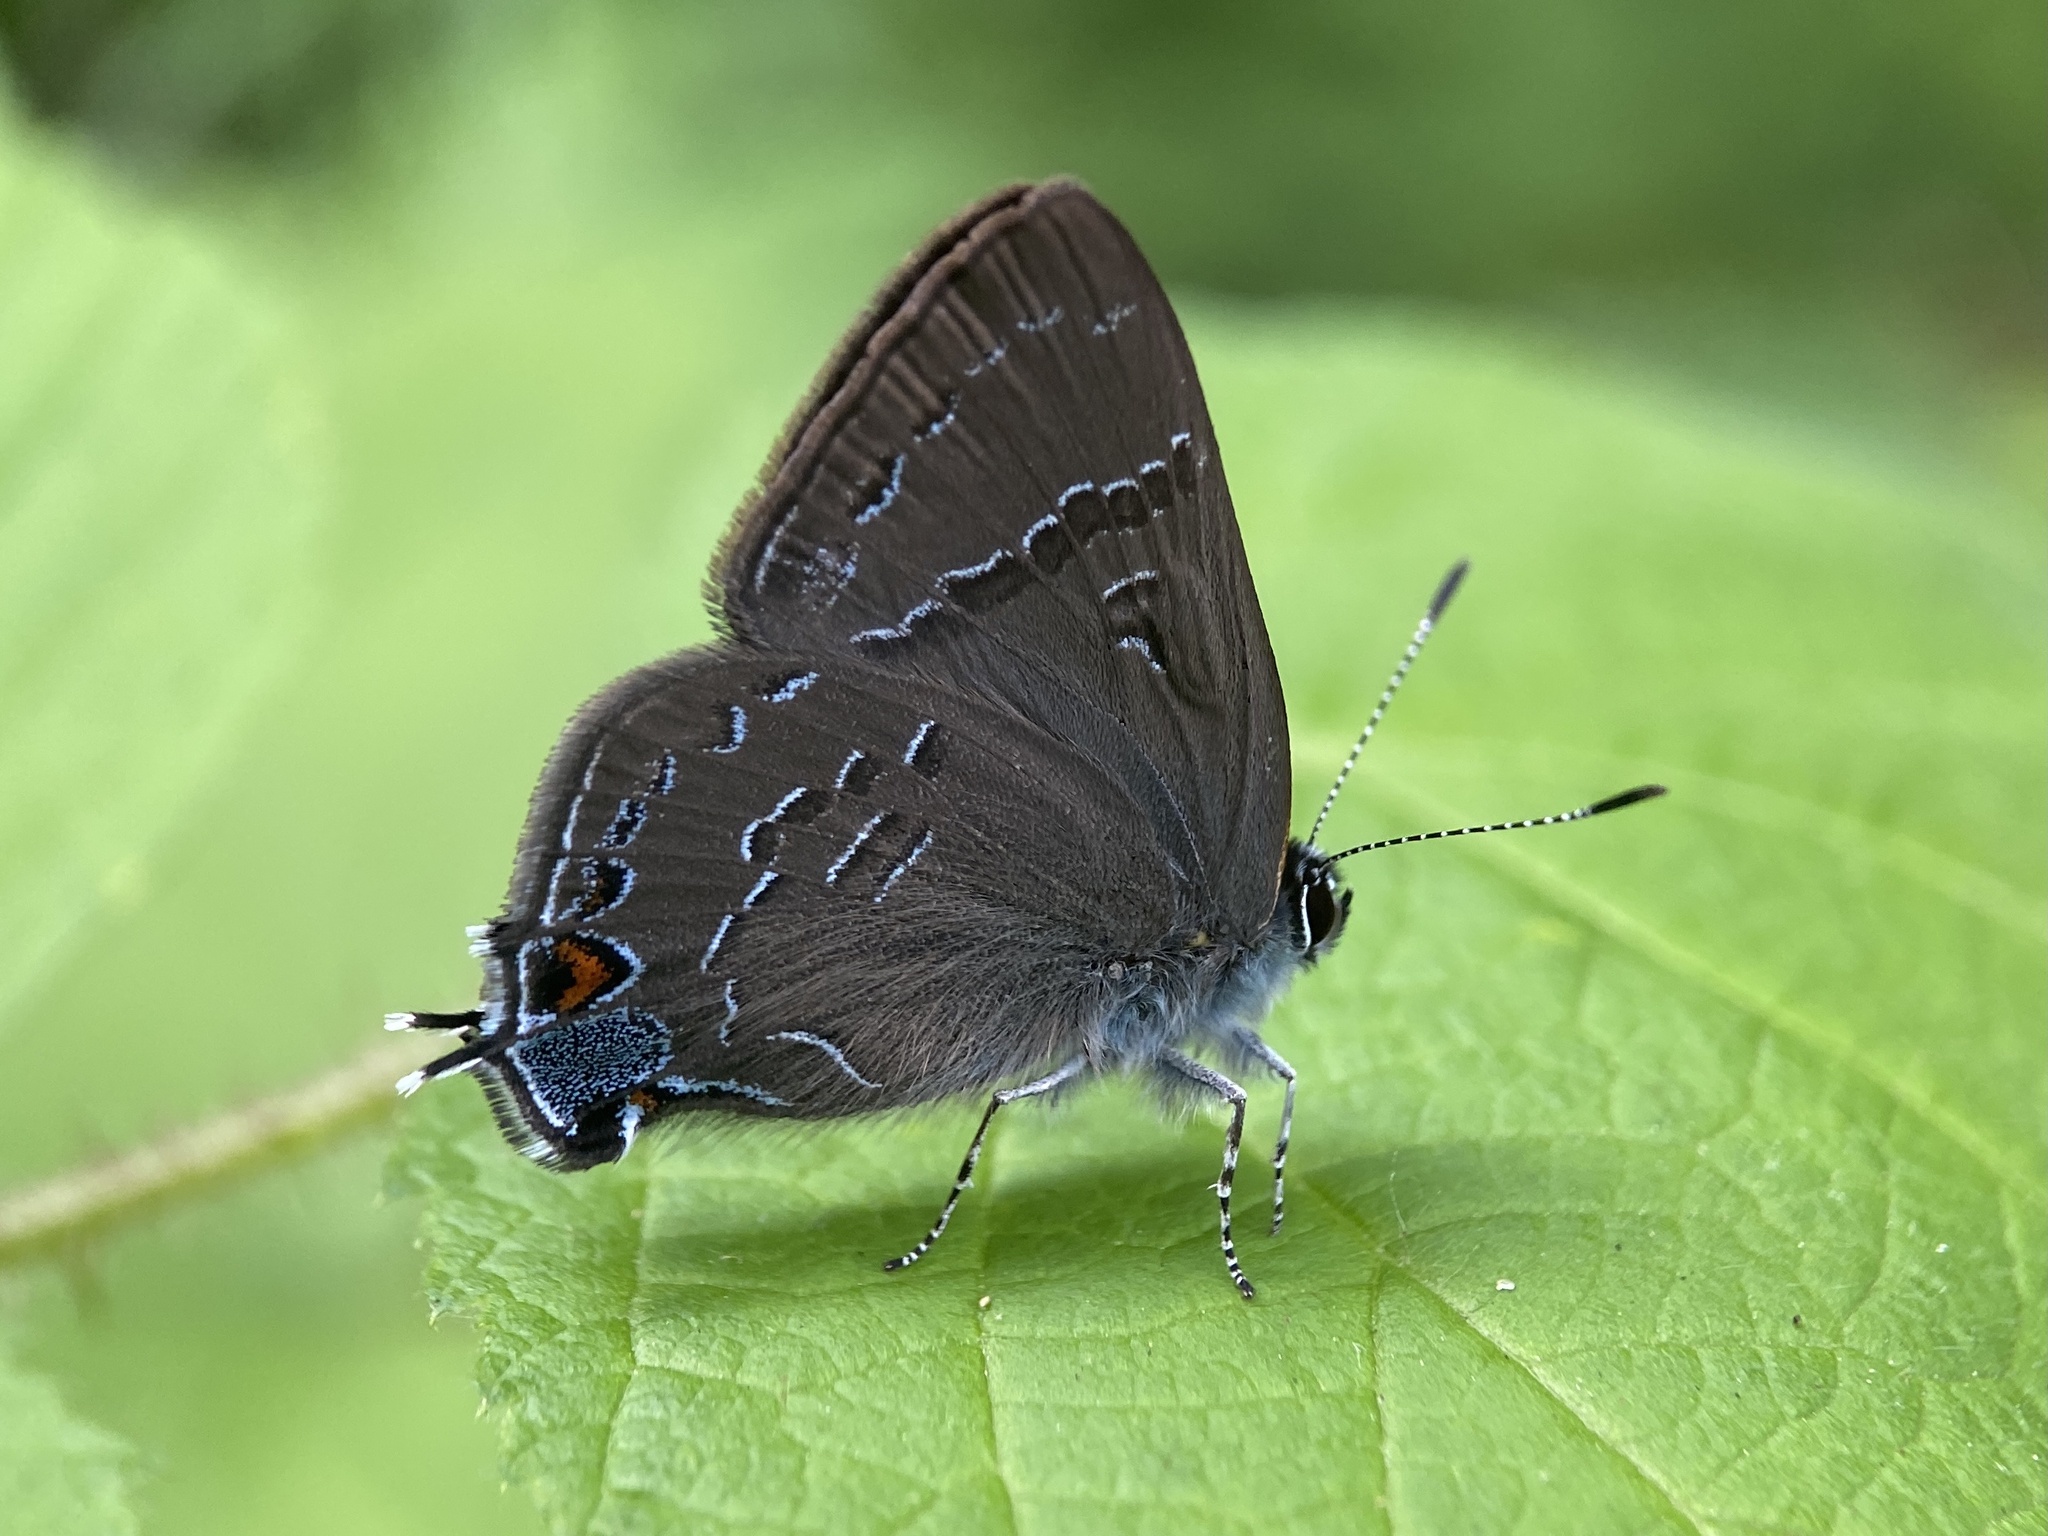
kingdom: Animalia
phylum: Arthropoda
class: Insecta
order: Lepidoptera
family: Lycaenidae
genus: Satyrium
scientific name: Satyrium calanus
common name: Banded hairstreak
